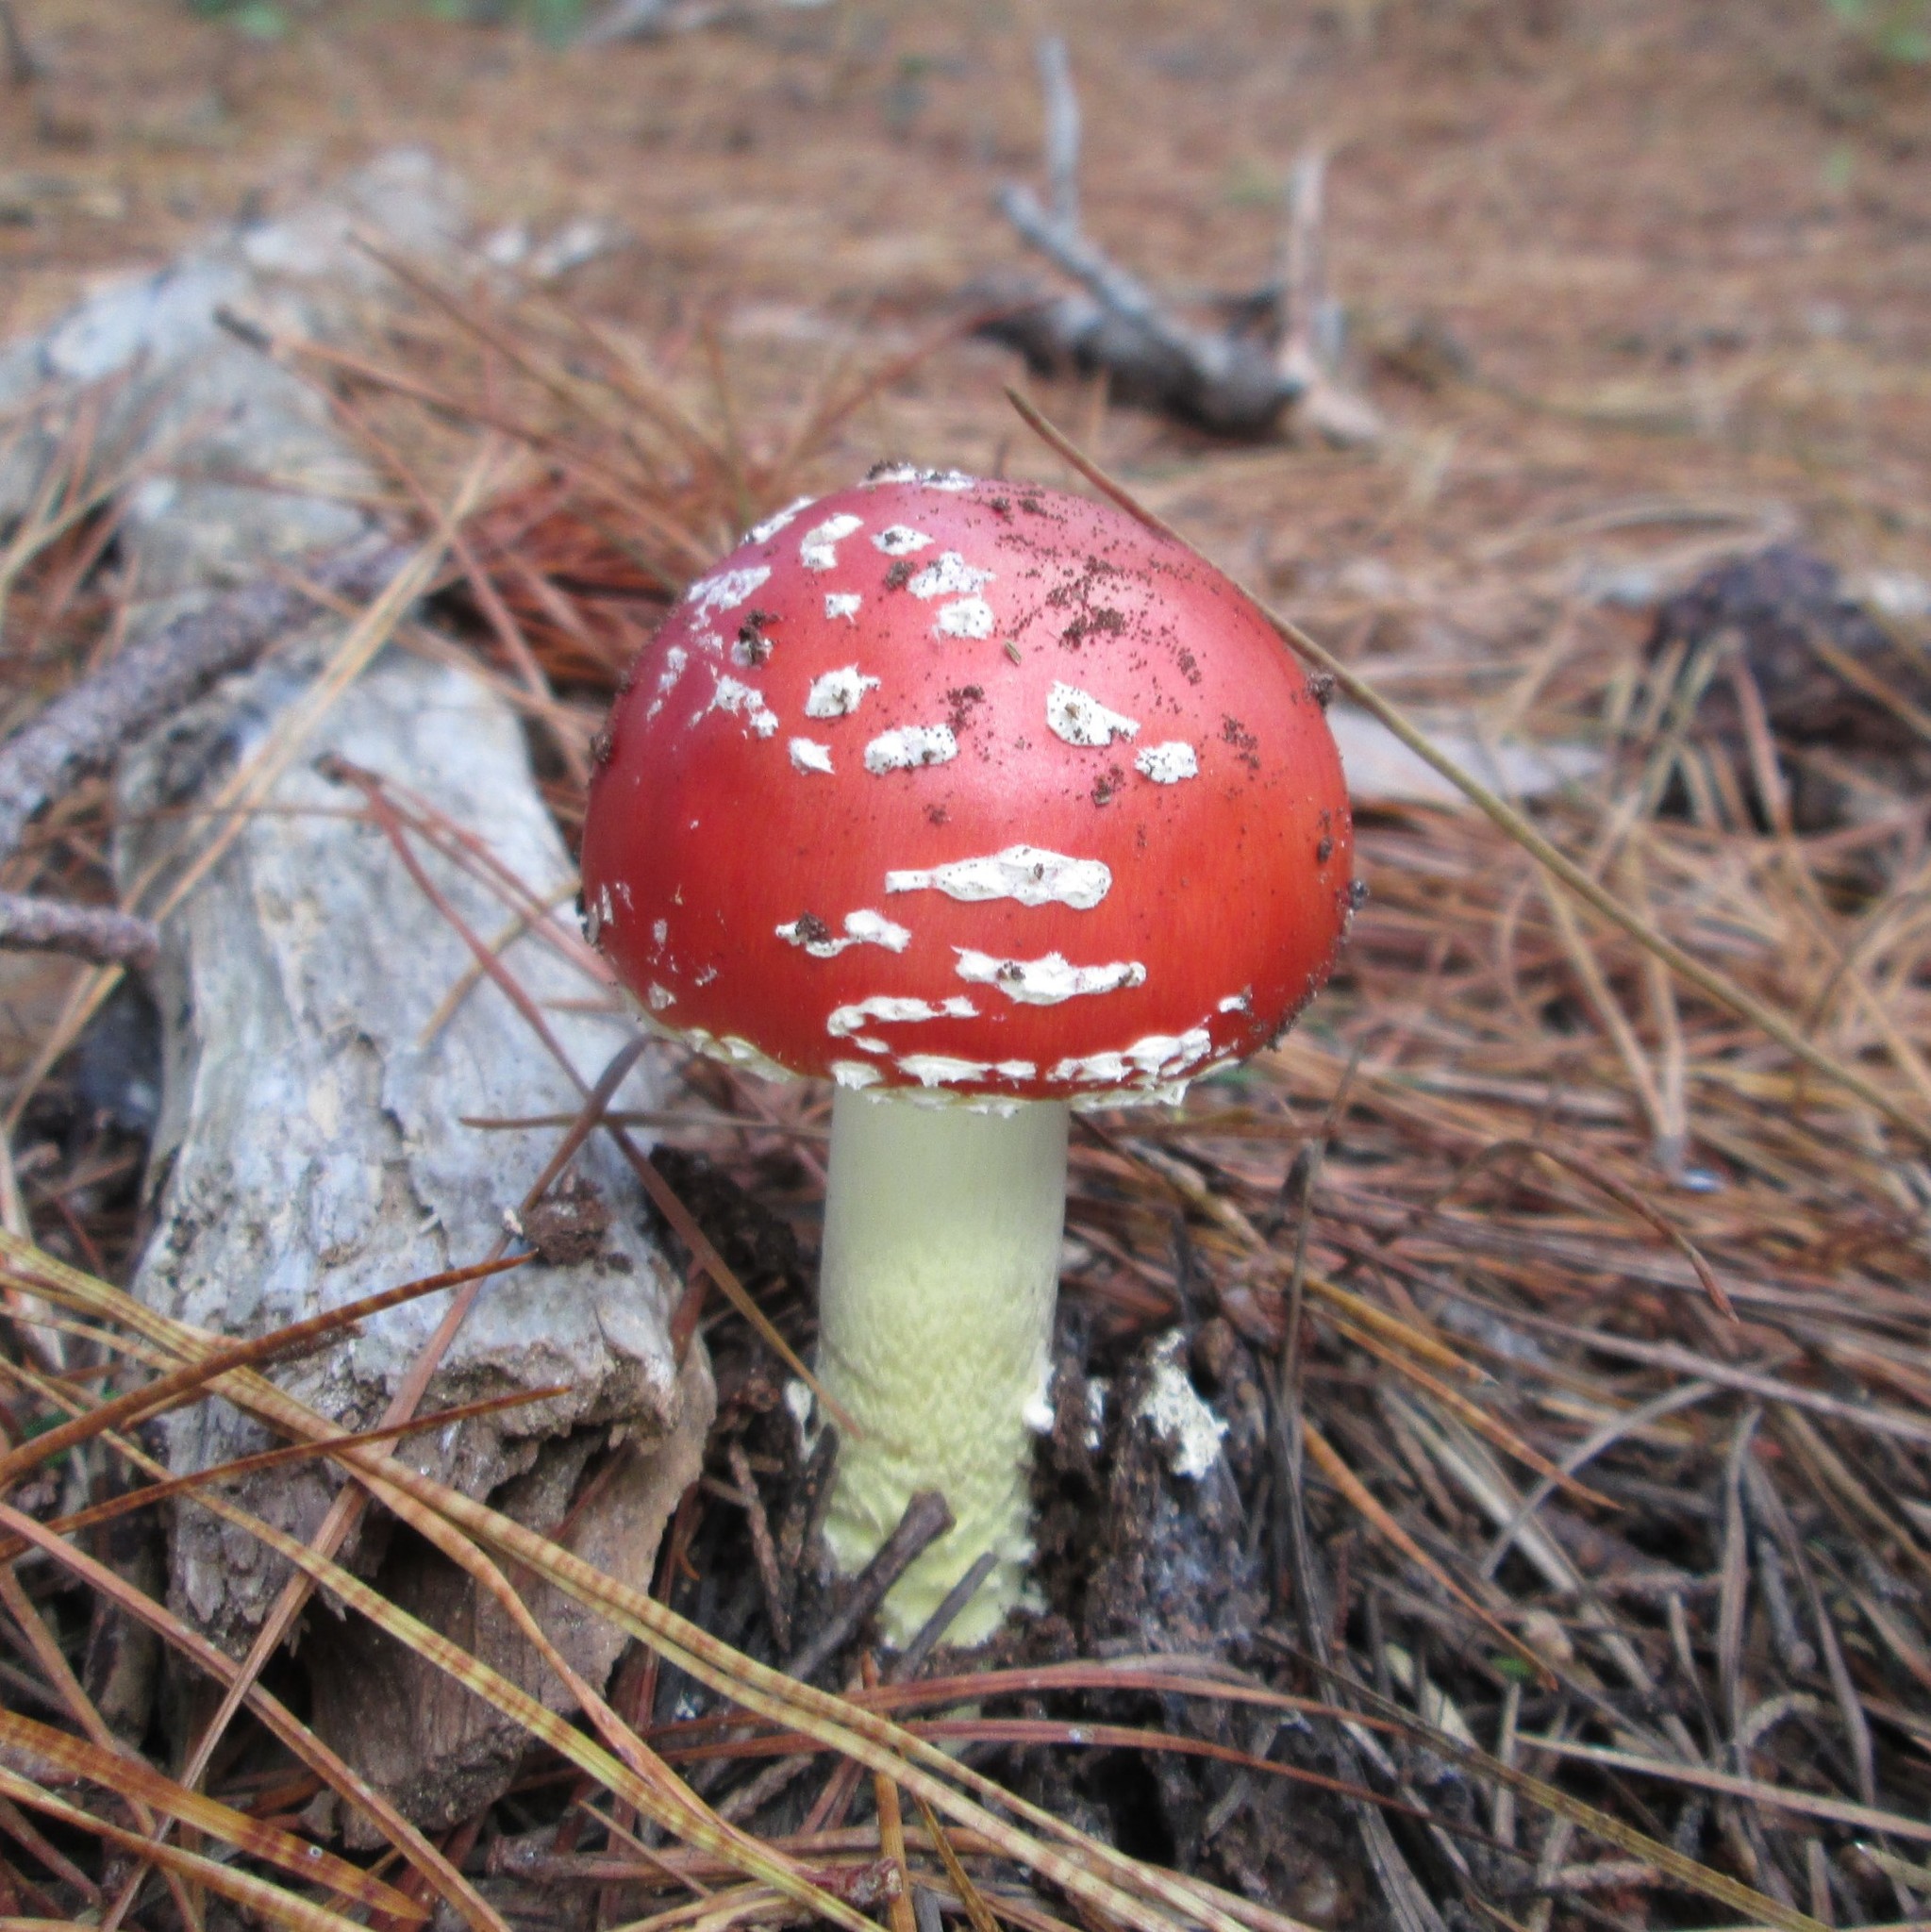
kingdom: Fungi
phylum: Basidiomycota
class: Agaricomycetes
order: Agaricales
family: Amanitaceae
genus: Amanita
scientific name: Amanita muscaria
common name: Fly agaric
